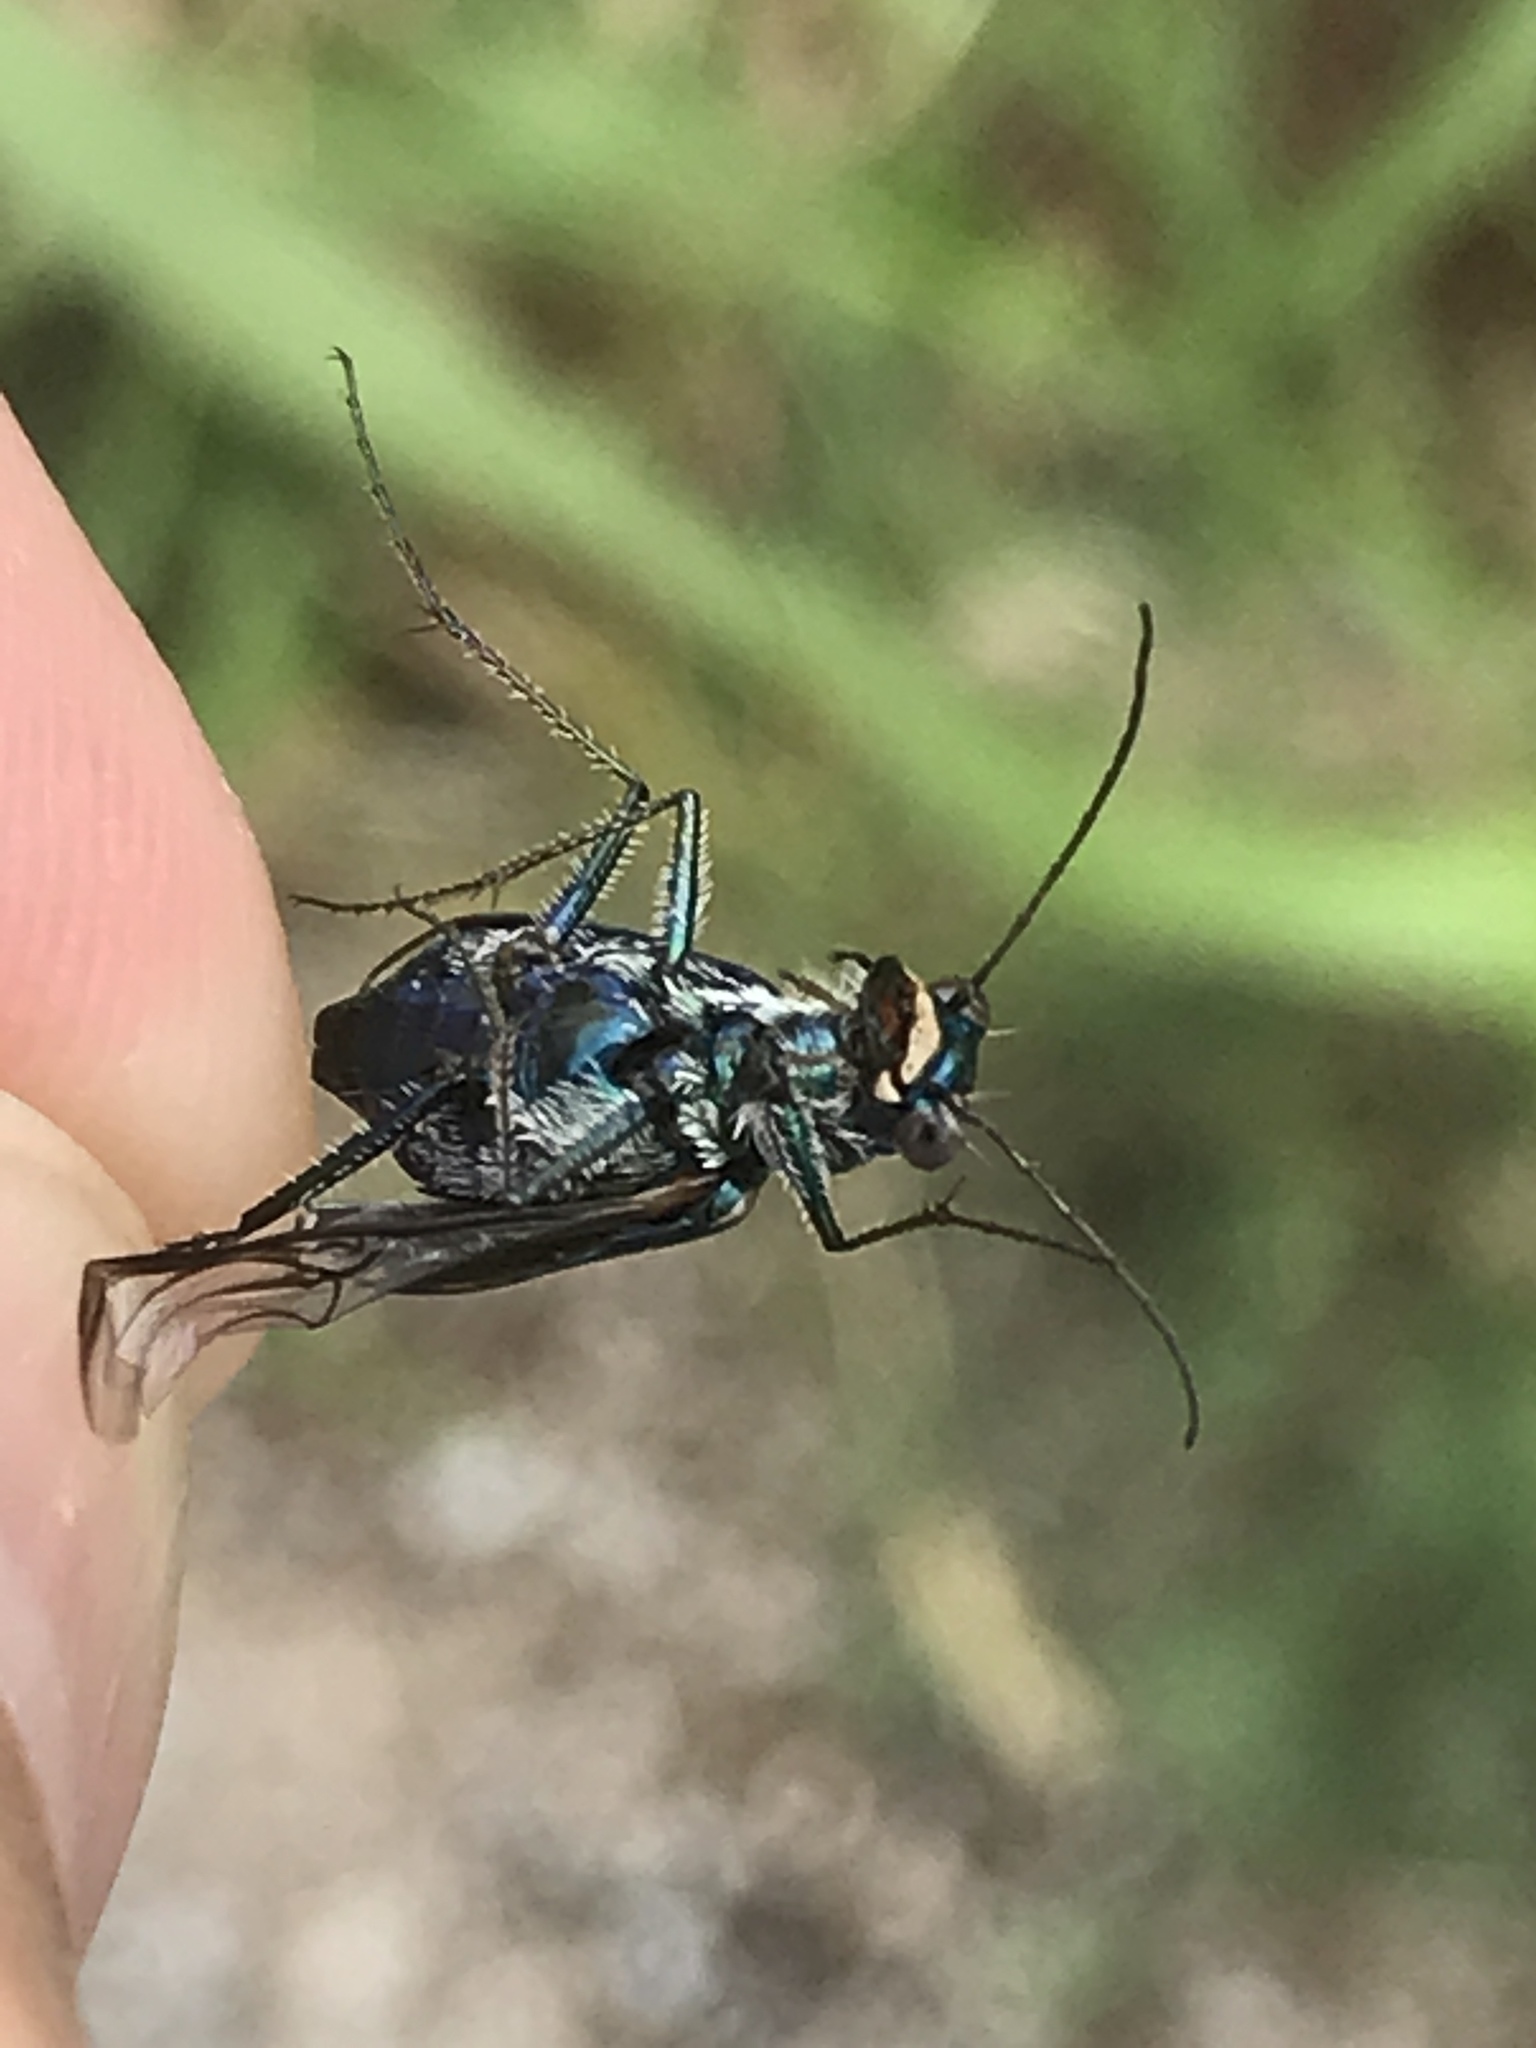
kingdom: Animalia
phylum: Arthropoda
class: Insecta
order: Coleoptera
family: Carabidae
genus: Cicindela
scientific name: Cicindela punctulata
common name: Punctured tiger beetle
